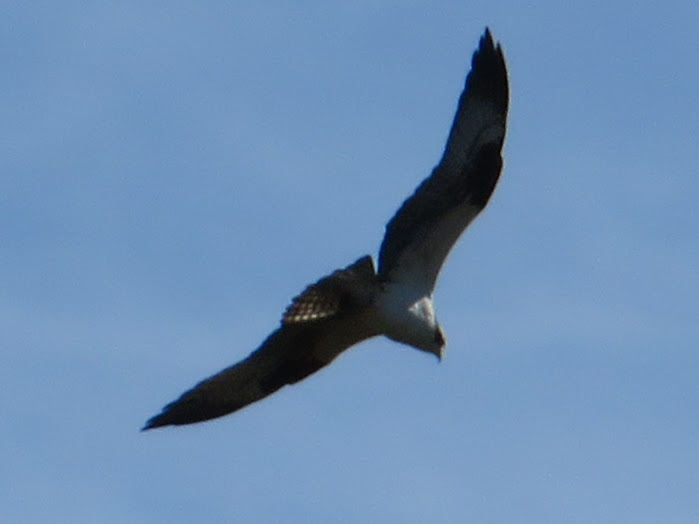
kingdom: Animalia
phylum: Chordata
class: Aves
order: Accipitriformes
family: Pandionidae
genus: Pandion
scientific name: Pandion haliaetus
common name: Osprey
